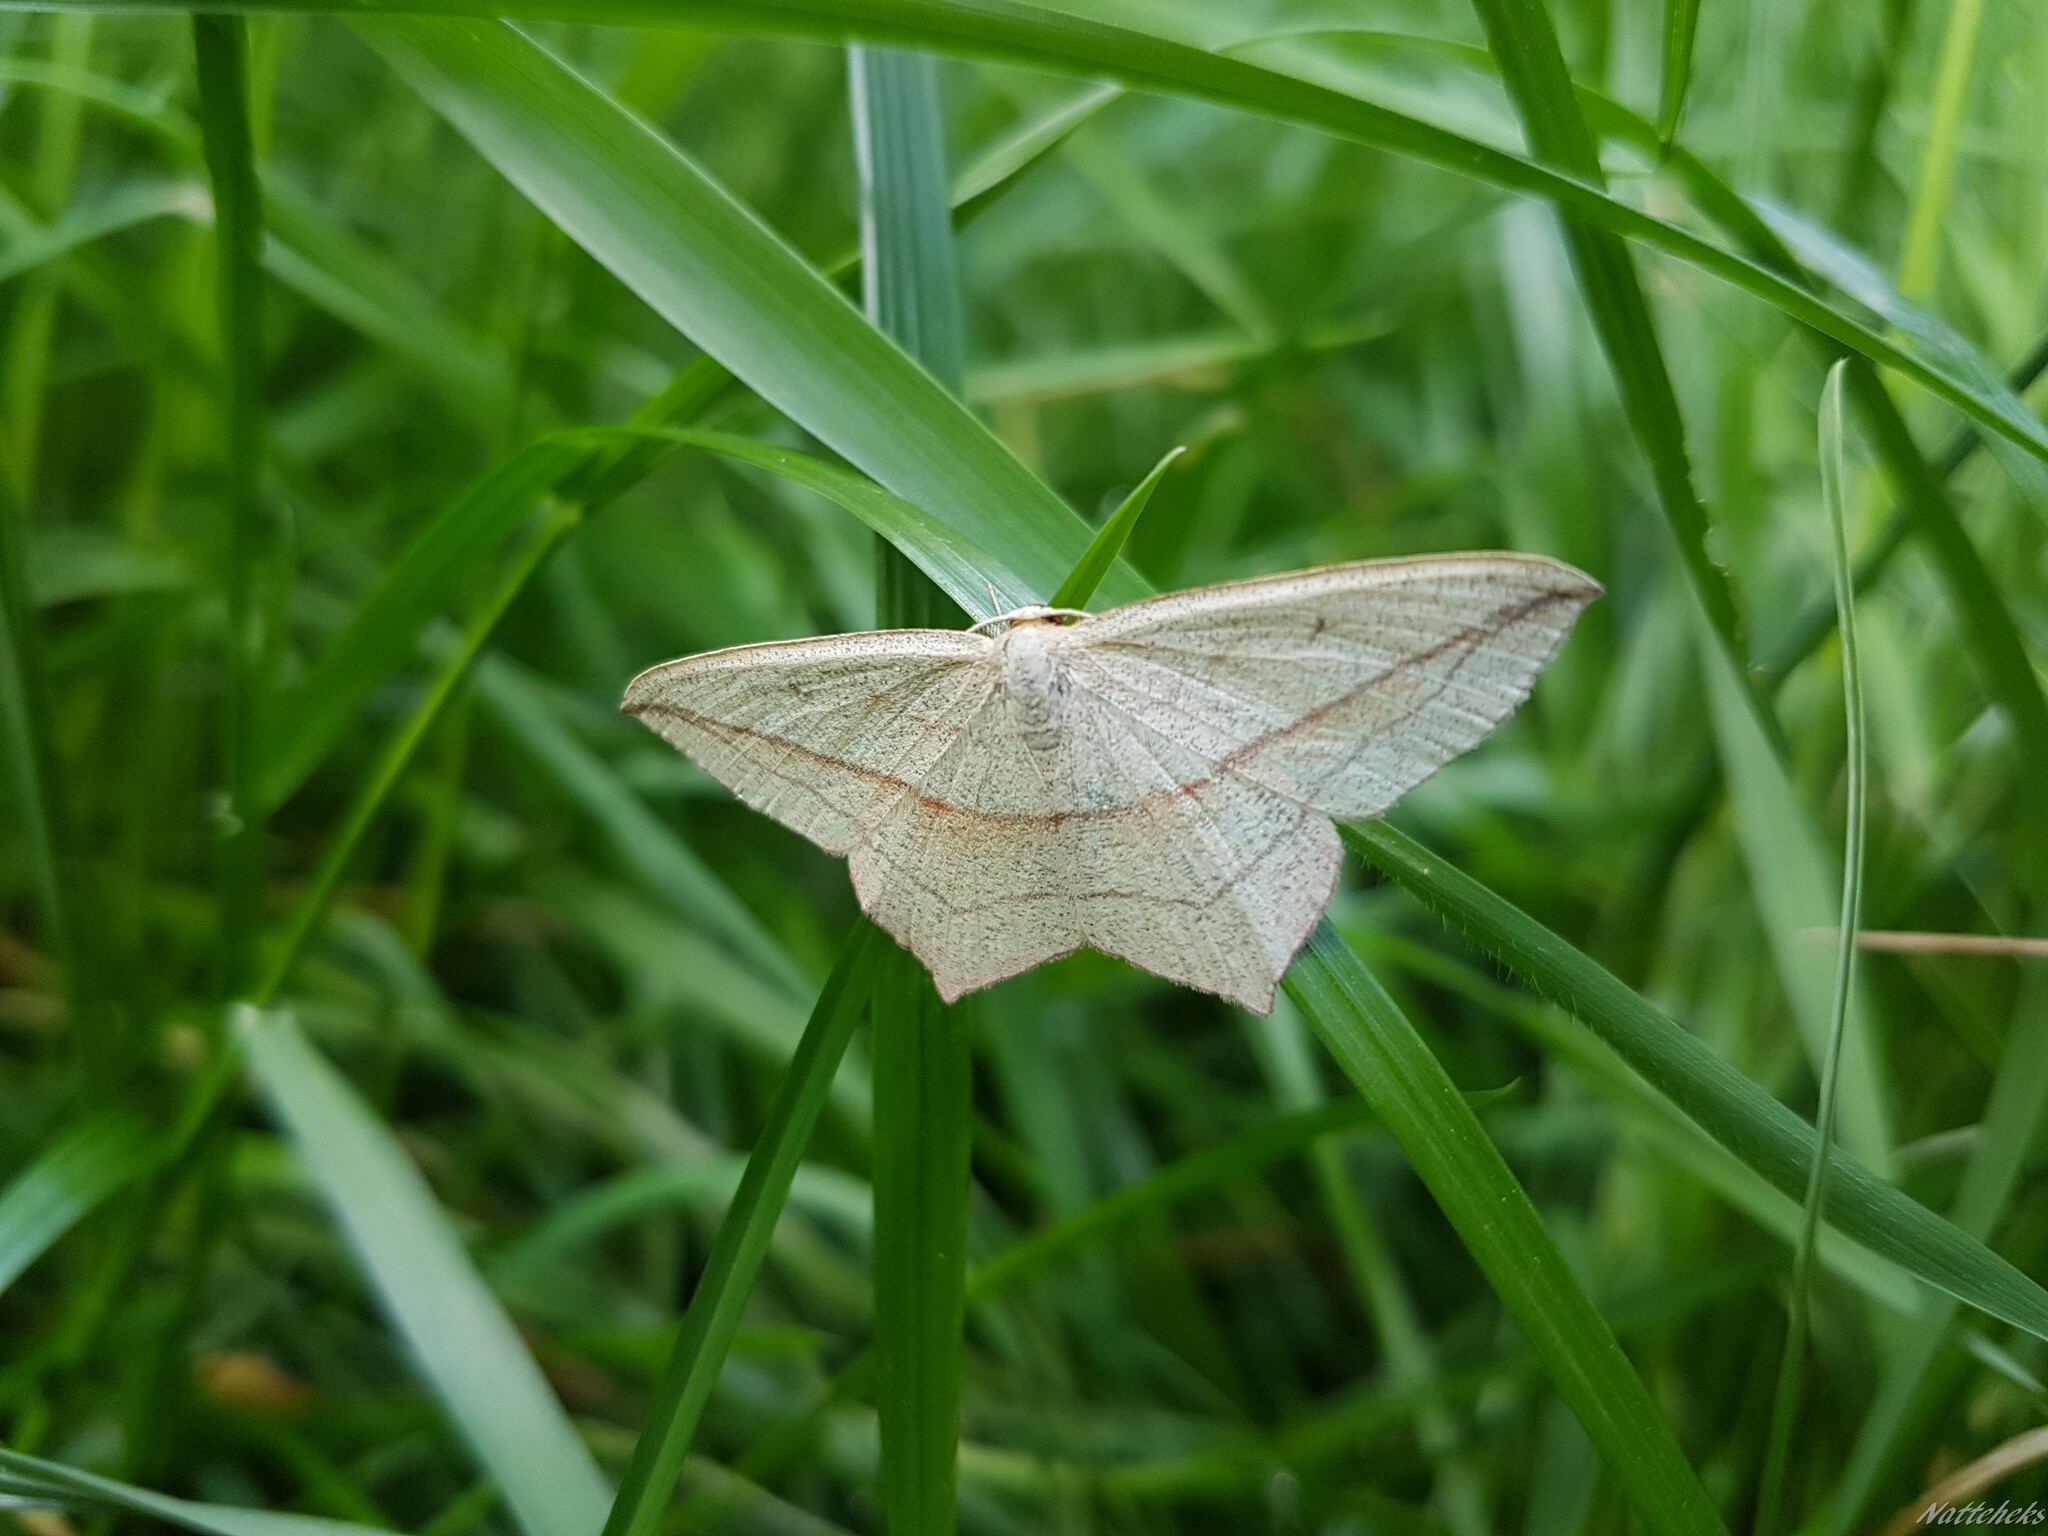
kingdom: Animalia
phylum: Arthropoda
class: Insecta
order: Lepidoptera
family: Geometridae
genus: Timandra
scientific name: Timandra comae
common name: Blood-vein
